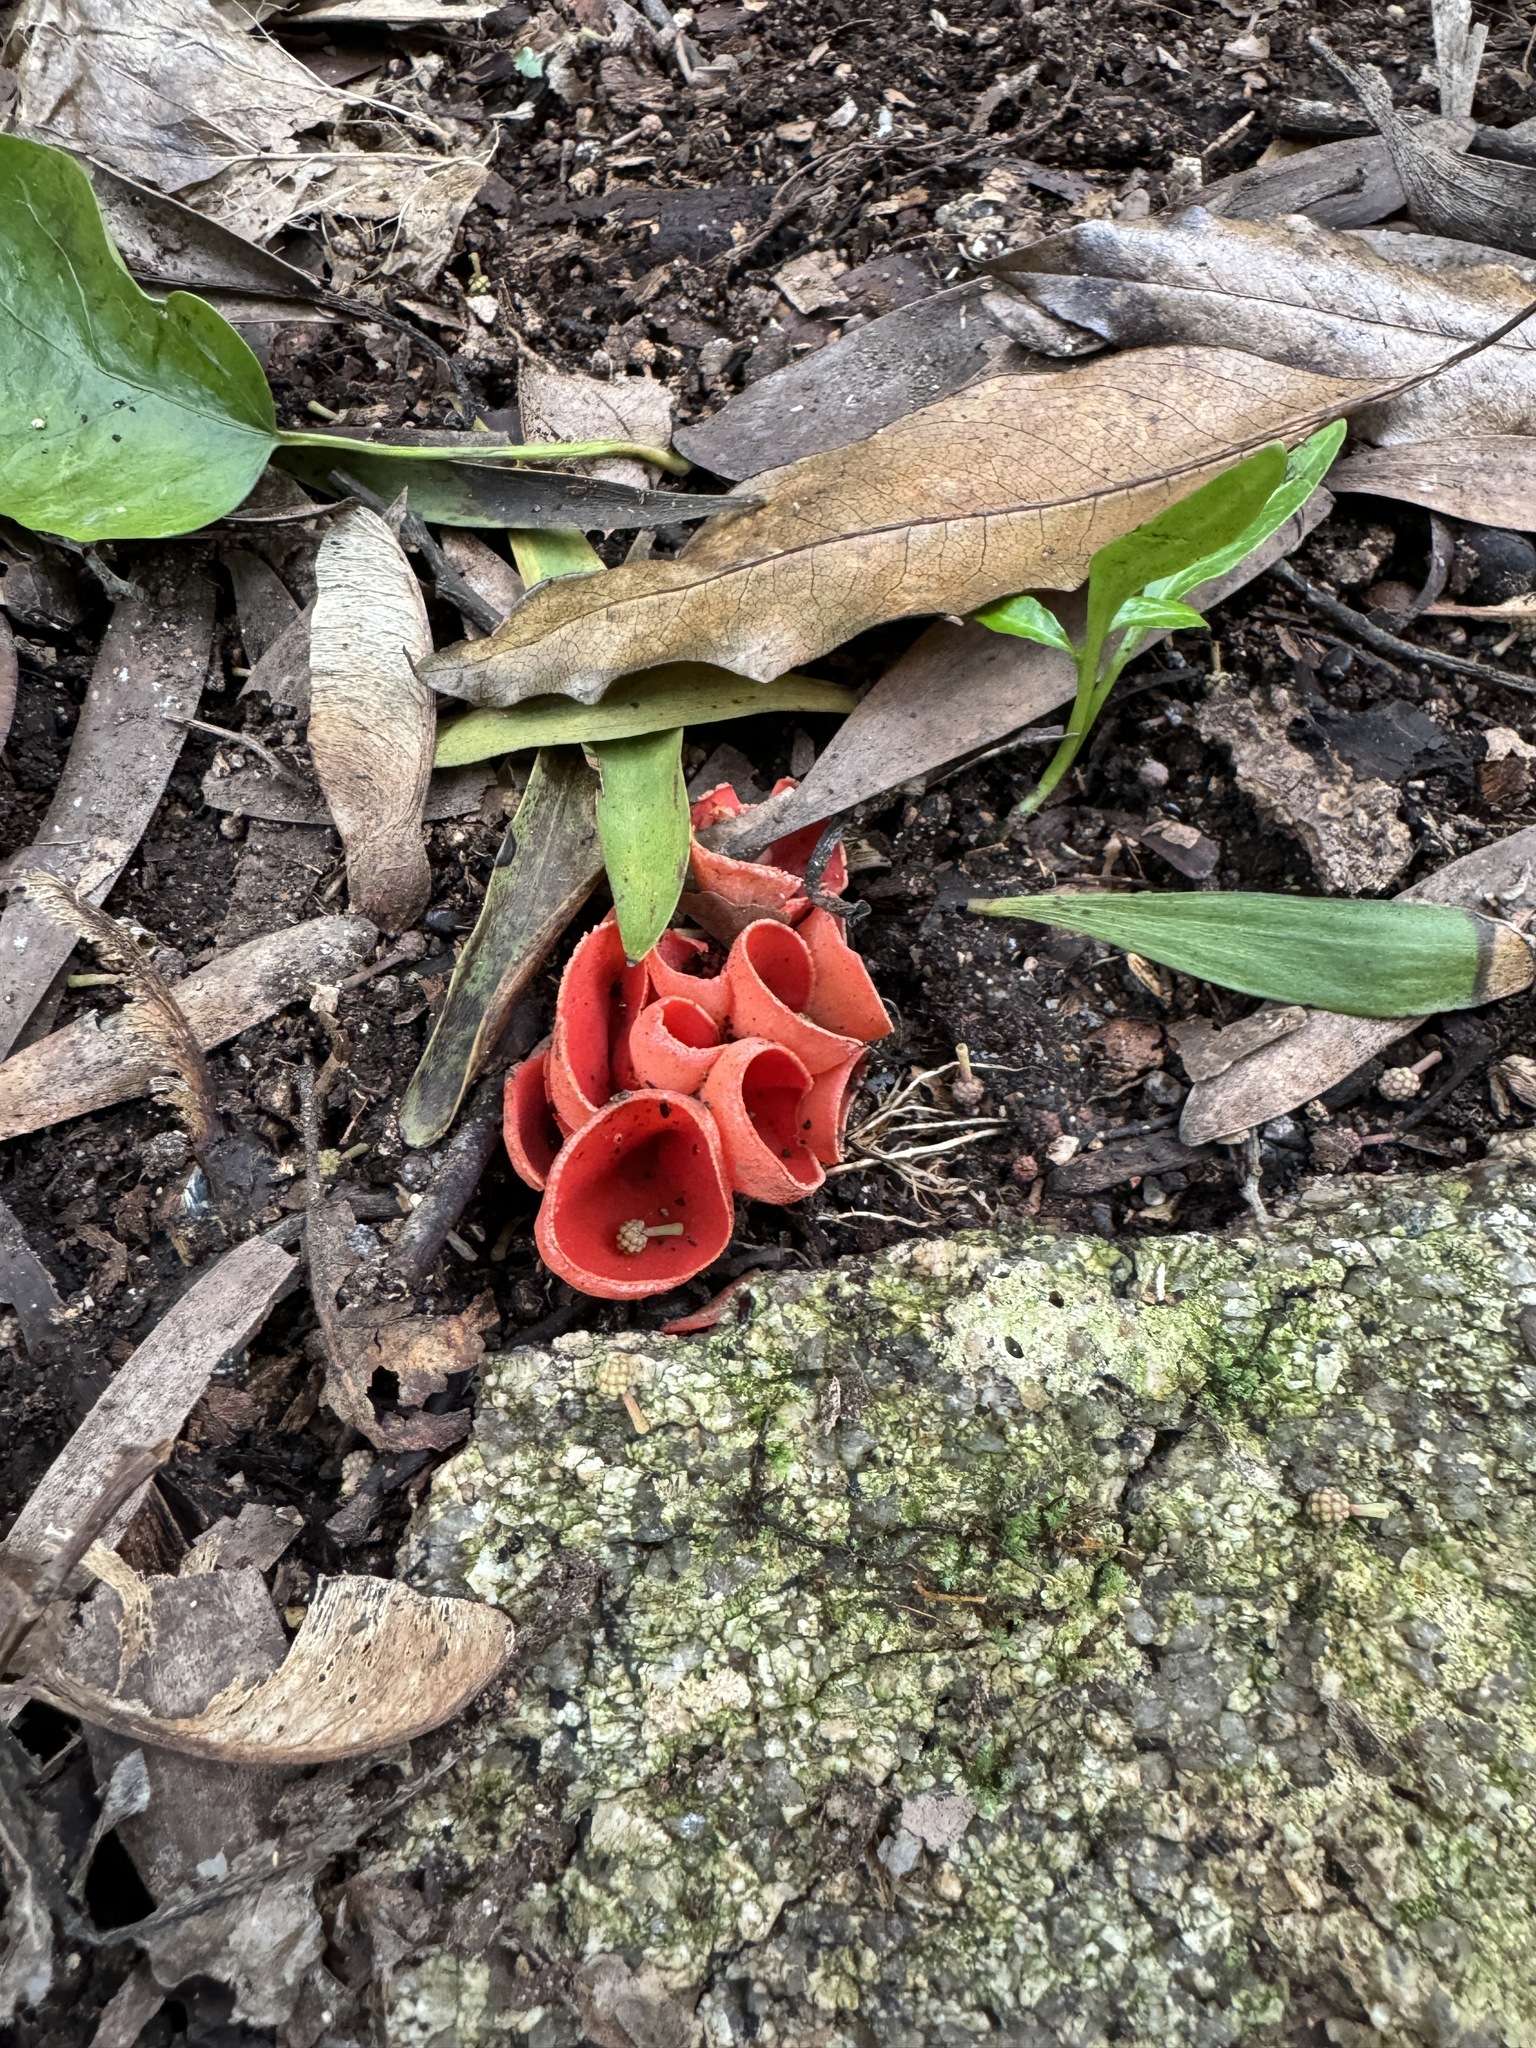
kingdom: Fungi
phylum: Ascomycota
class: Pezizomycetes
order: Pezizales
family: Sarcoscyphaceae
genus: Sarcoscypha
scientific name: Sarcoscypha
